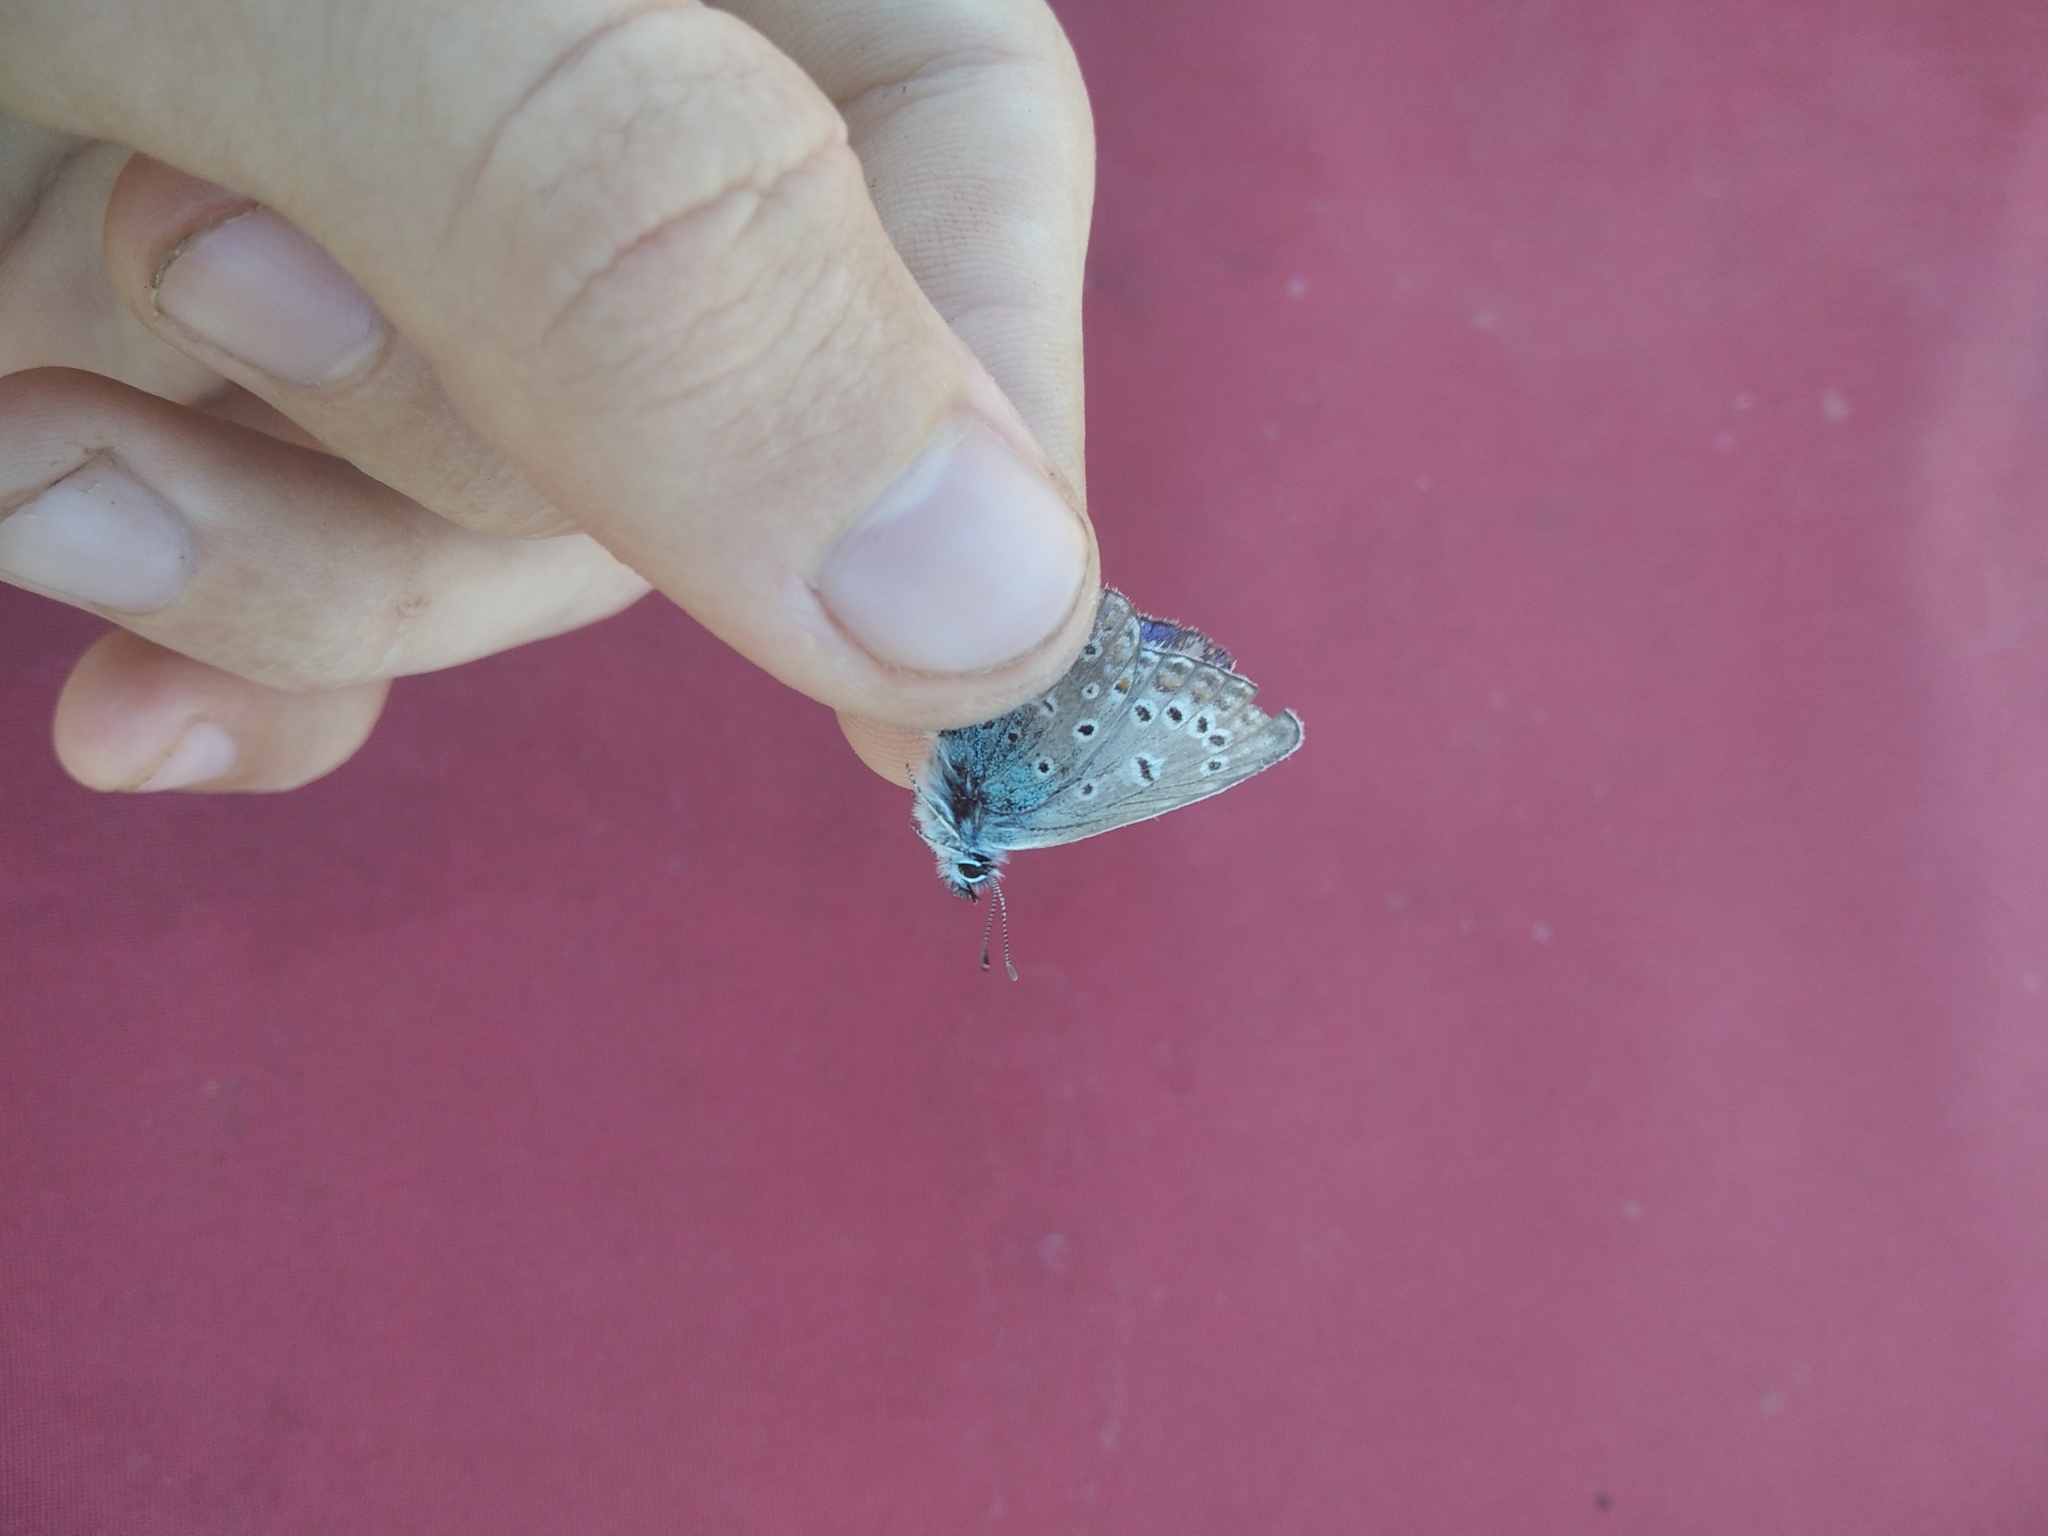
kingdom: Animalia
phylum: Arthropoda
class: Insecta
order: Lepidoptera
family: Lycaenidae
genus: Polyommatus
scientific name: Polyommatus icarus
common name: Common blue
